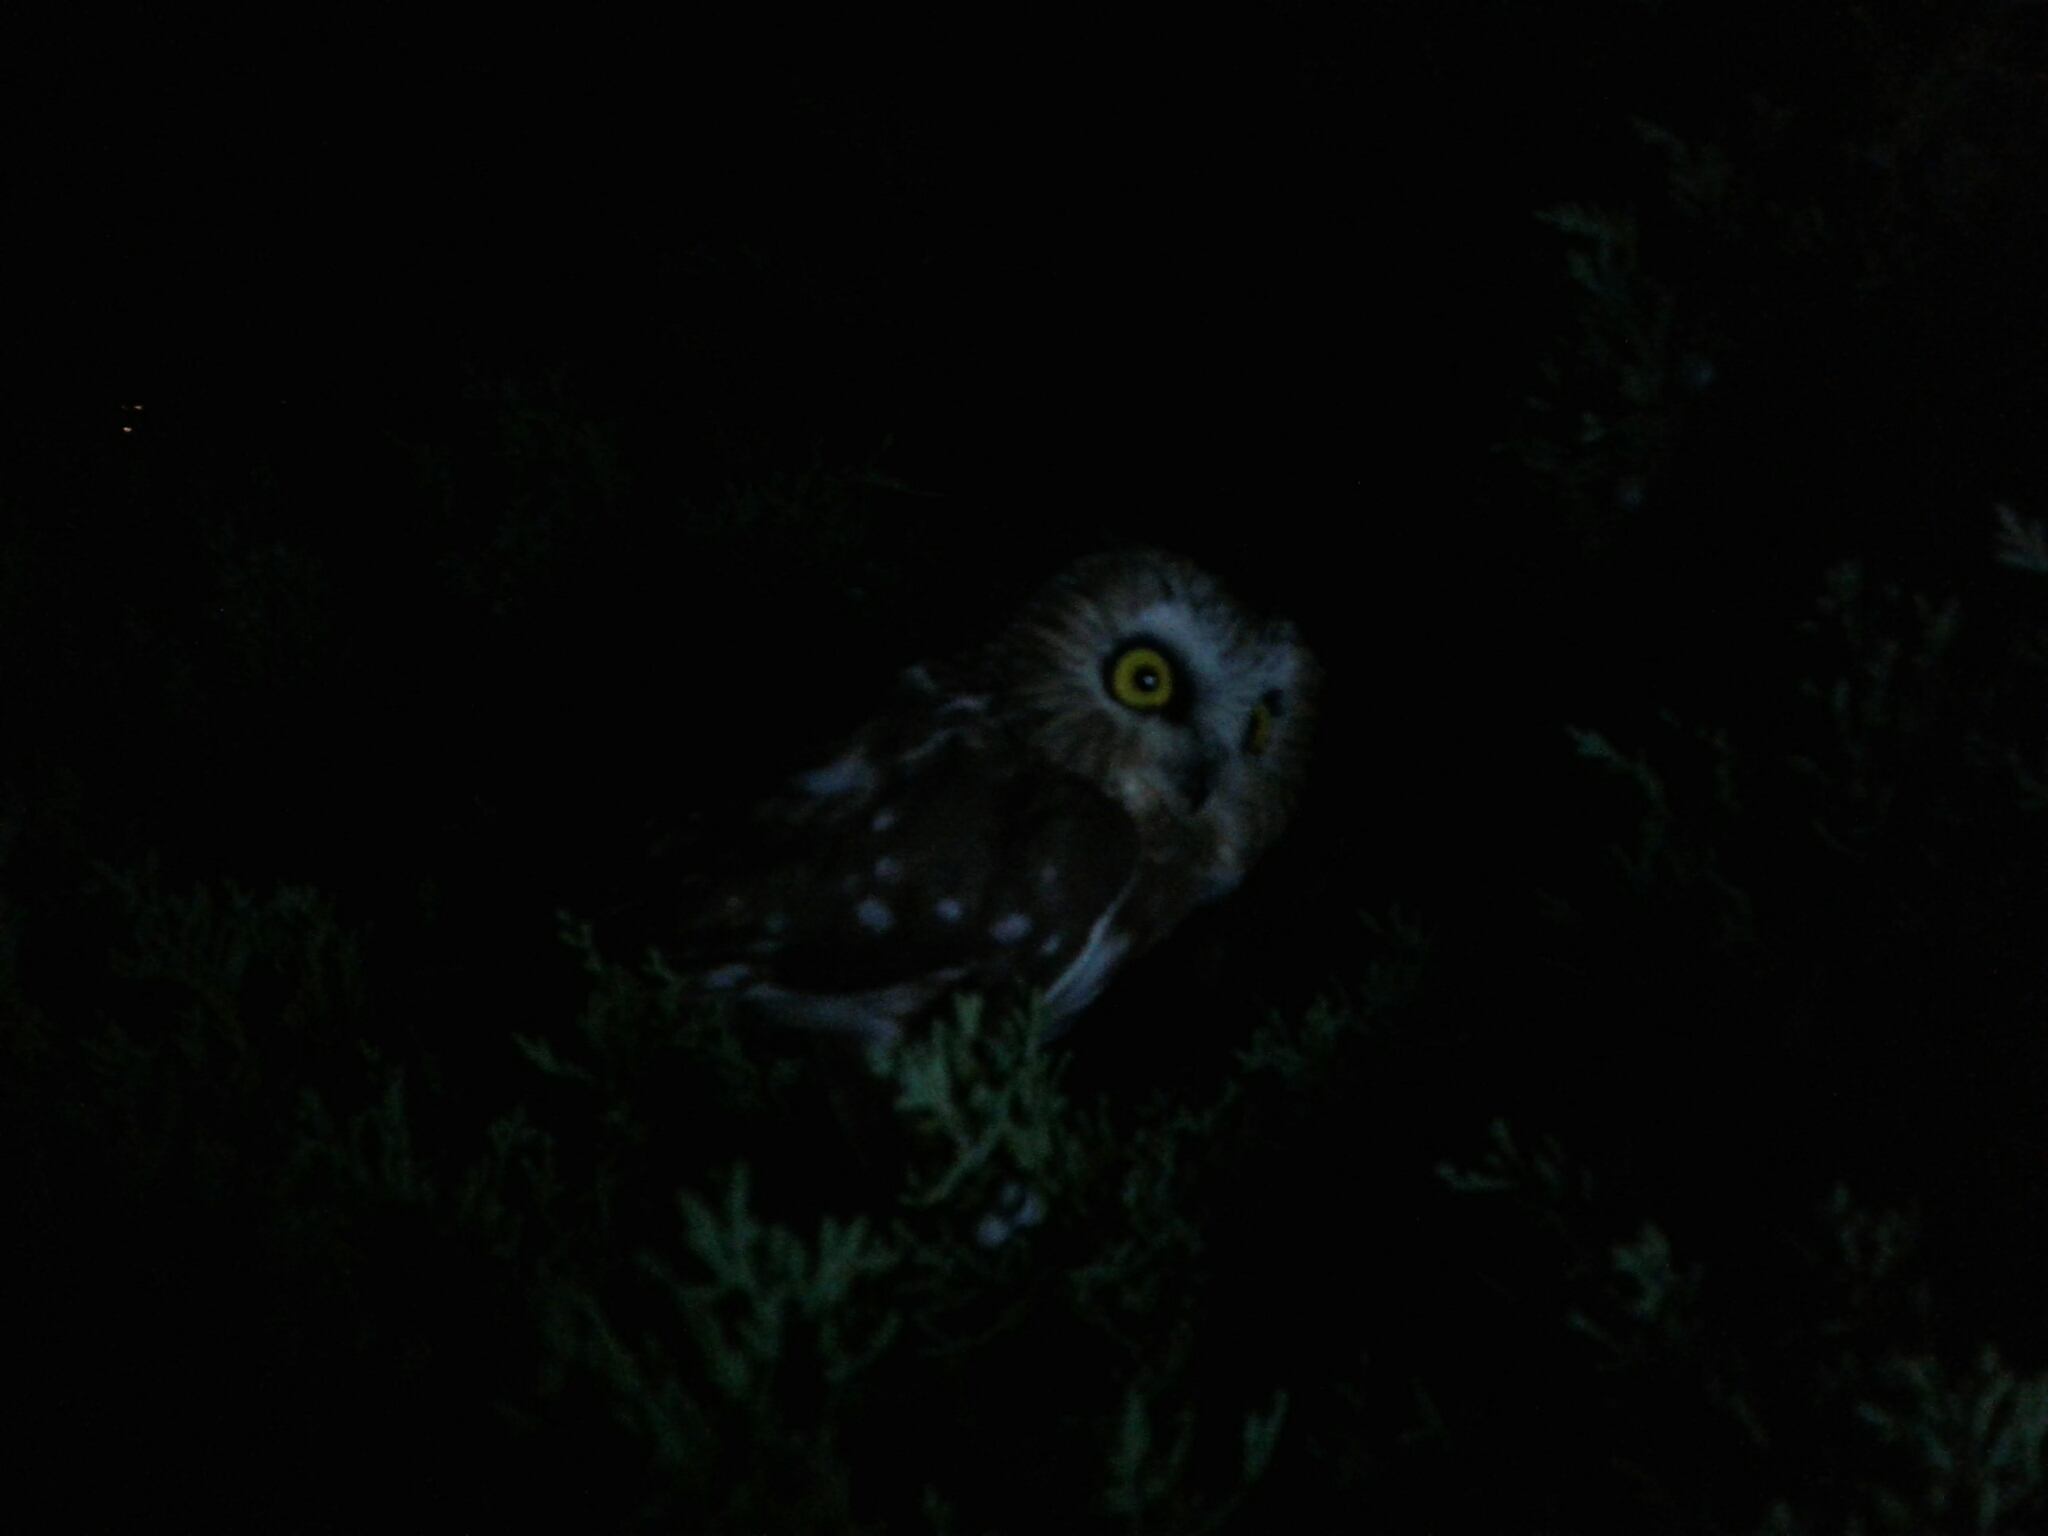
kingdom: Animalia
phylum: Chordata
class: Aves
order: Strigiformes
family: Strigidae
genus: Aegolius
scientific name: Aegolius acadicus
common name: Northern saw-whet owl
